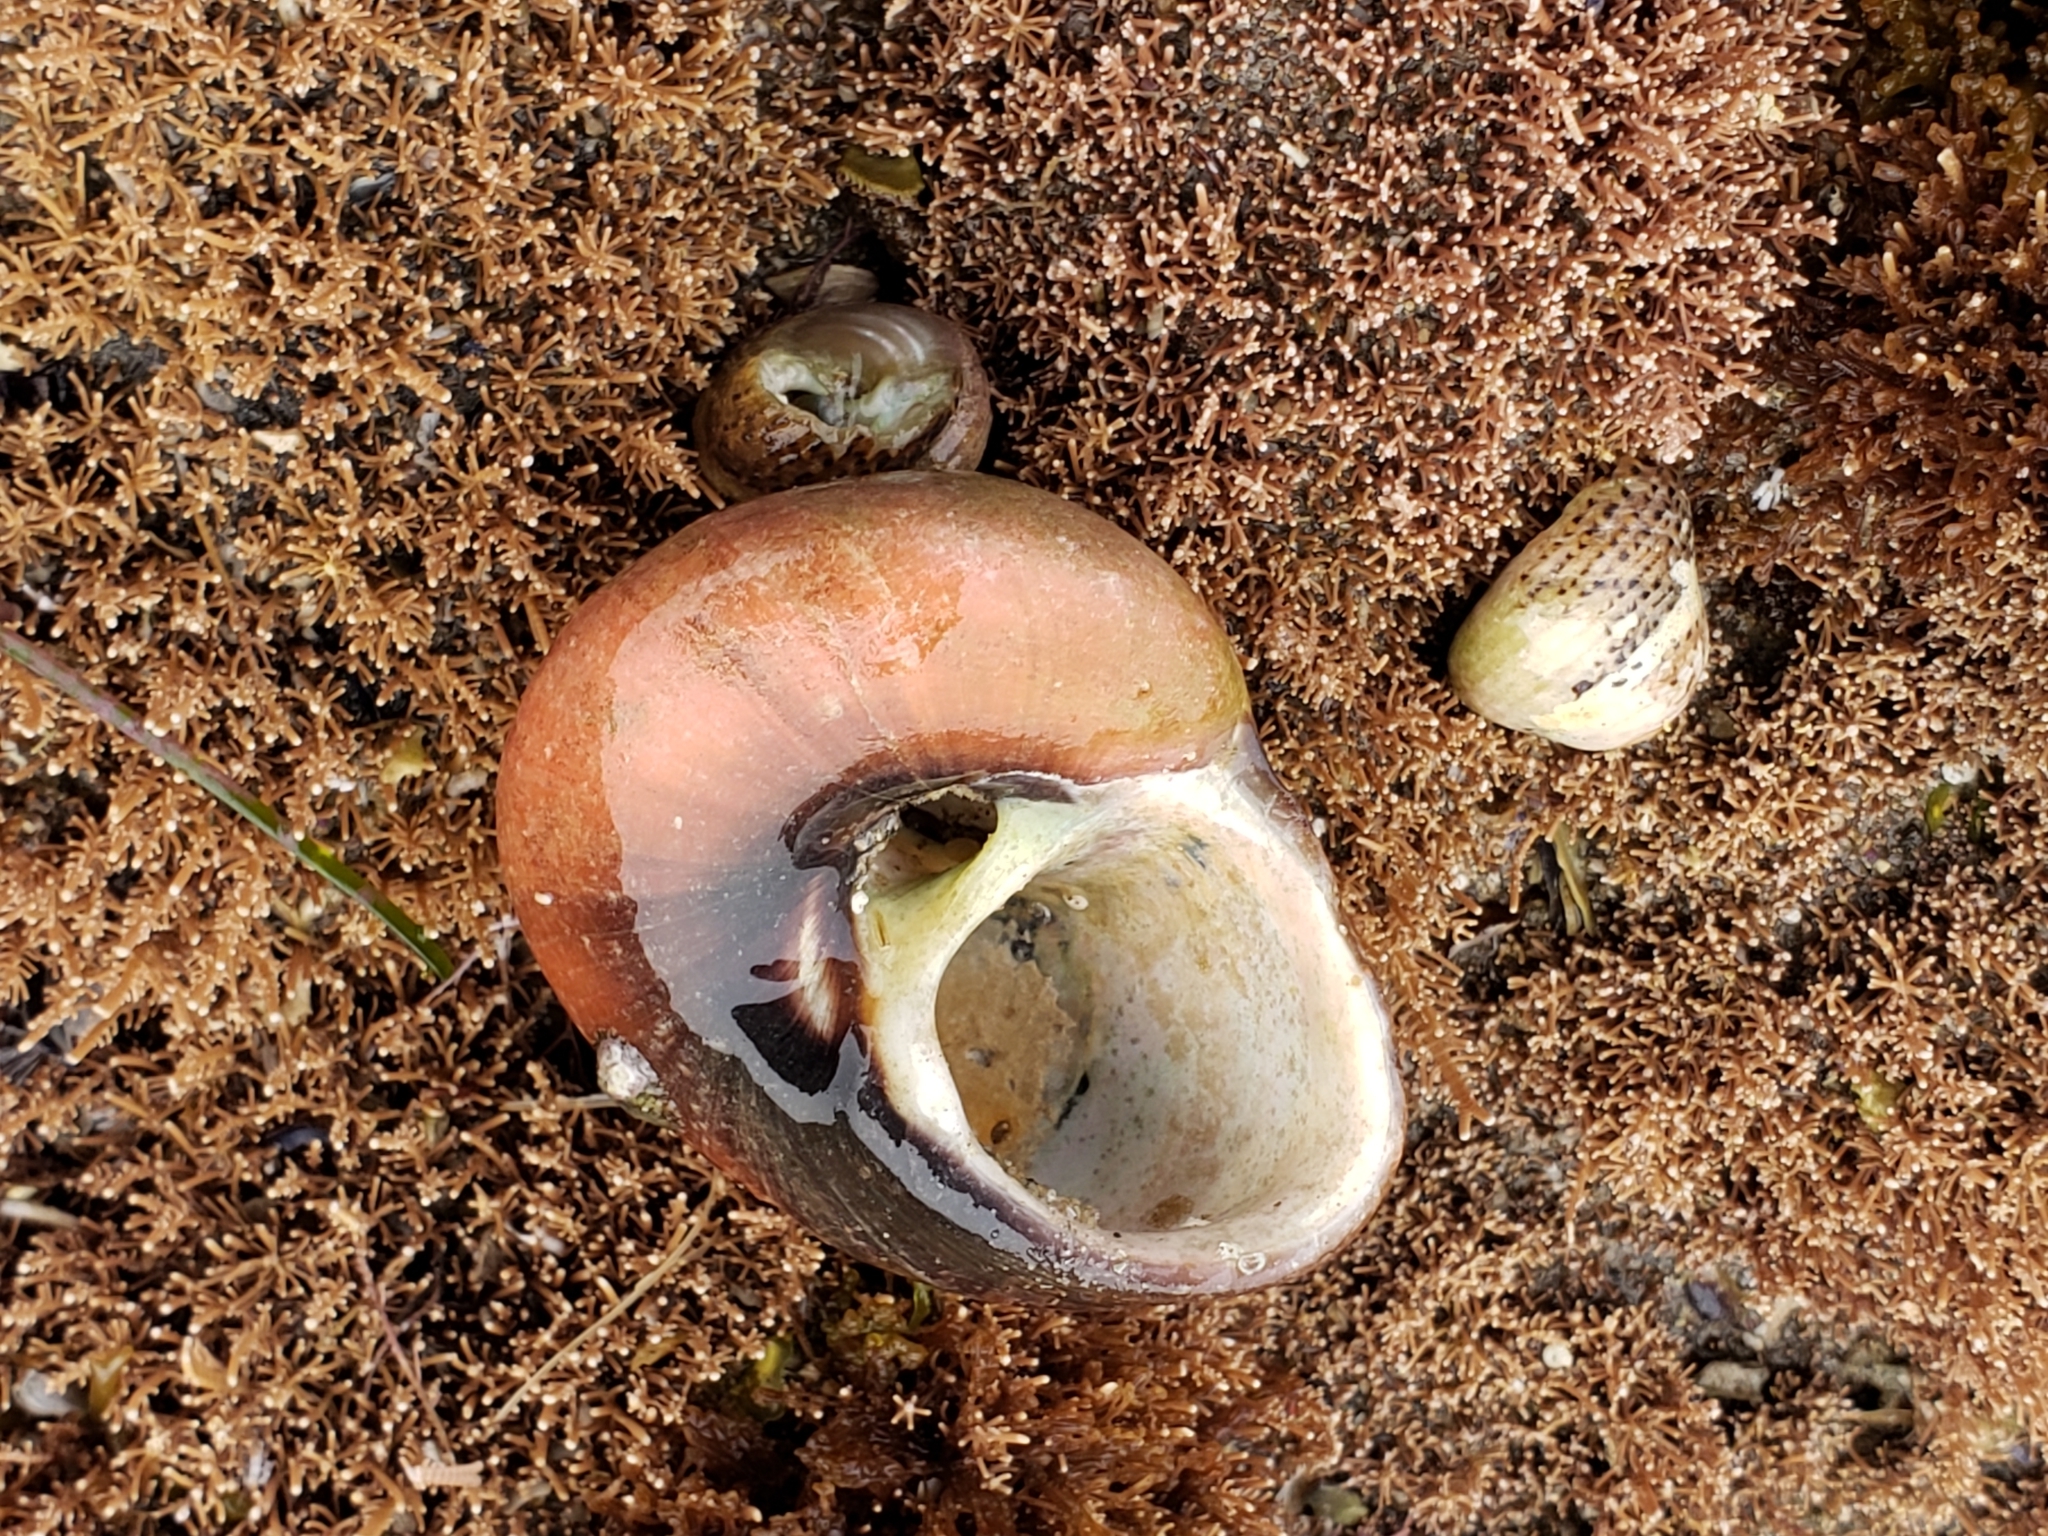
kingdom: Animalia
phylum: Mollusca
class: Gastropoda
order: Trochida
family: Tegulidae
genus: Norrisia
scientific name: Norrisia norrisii
